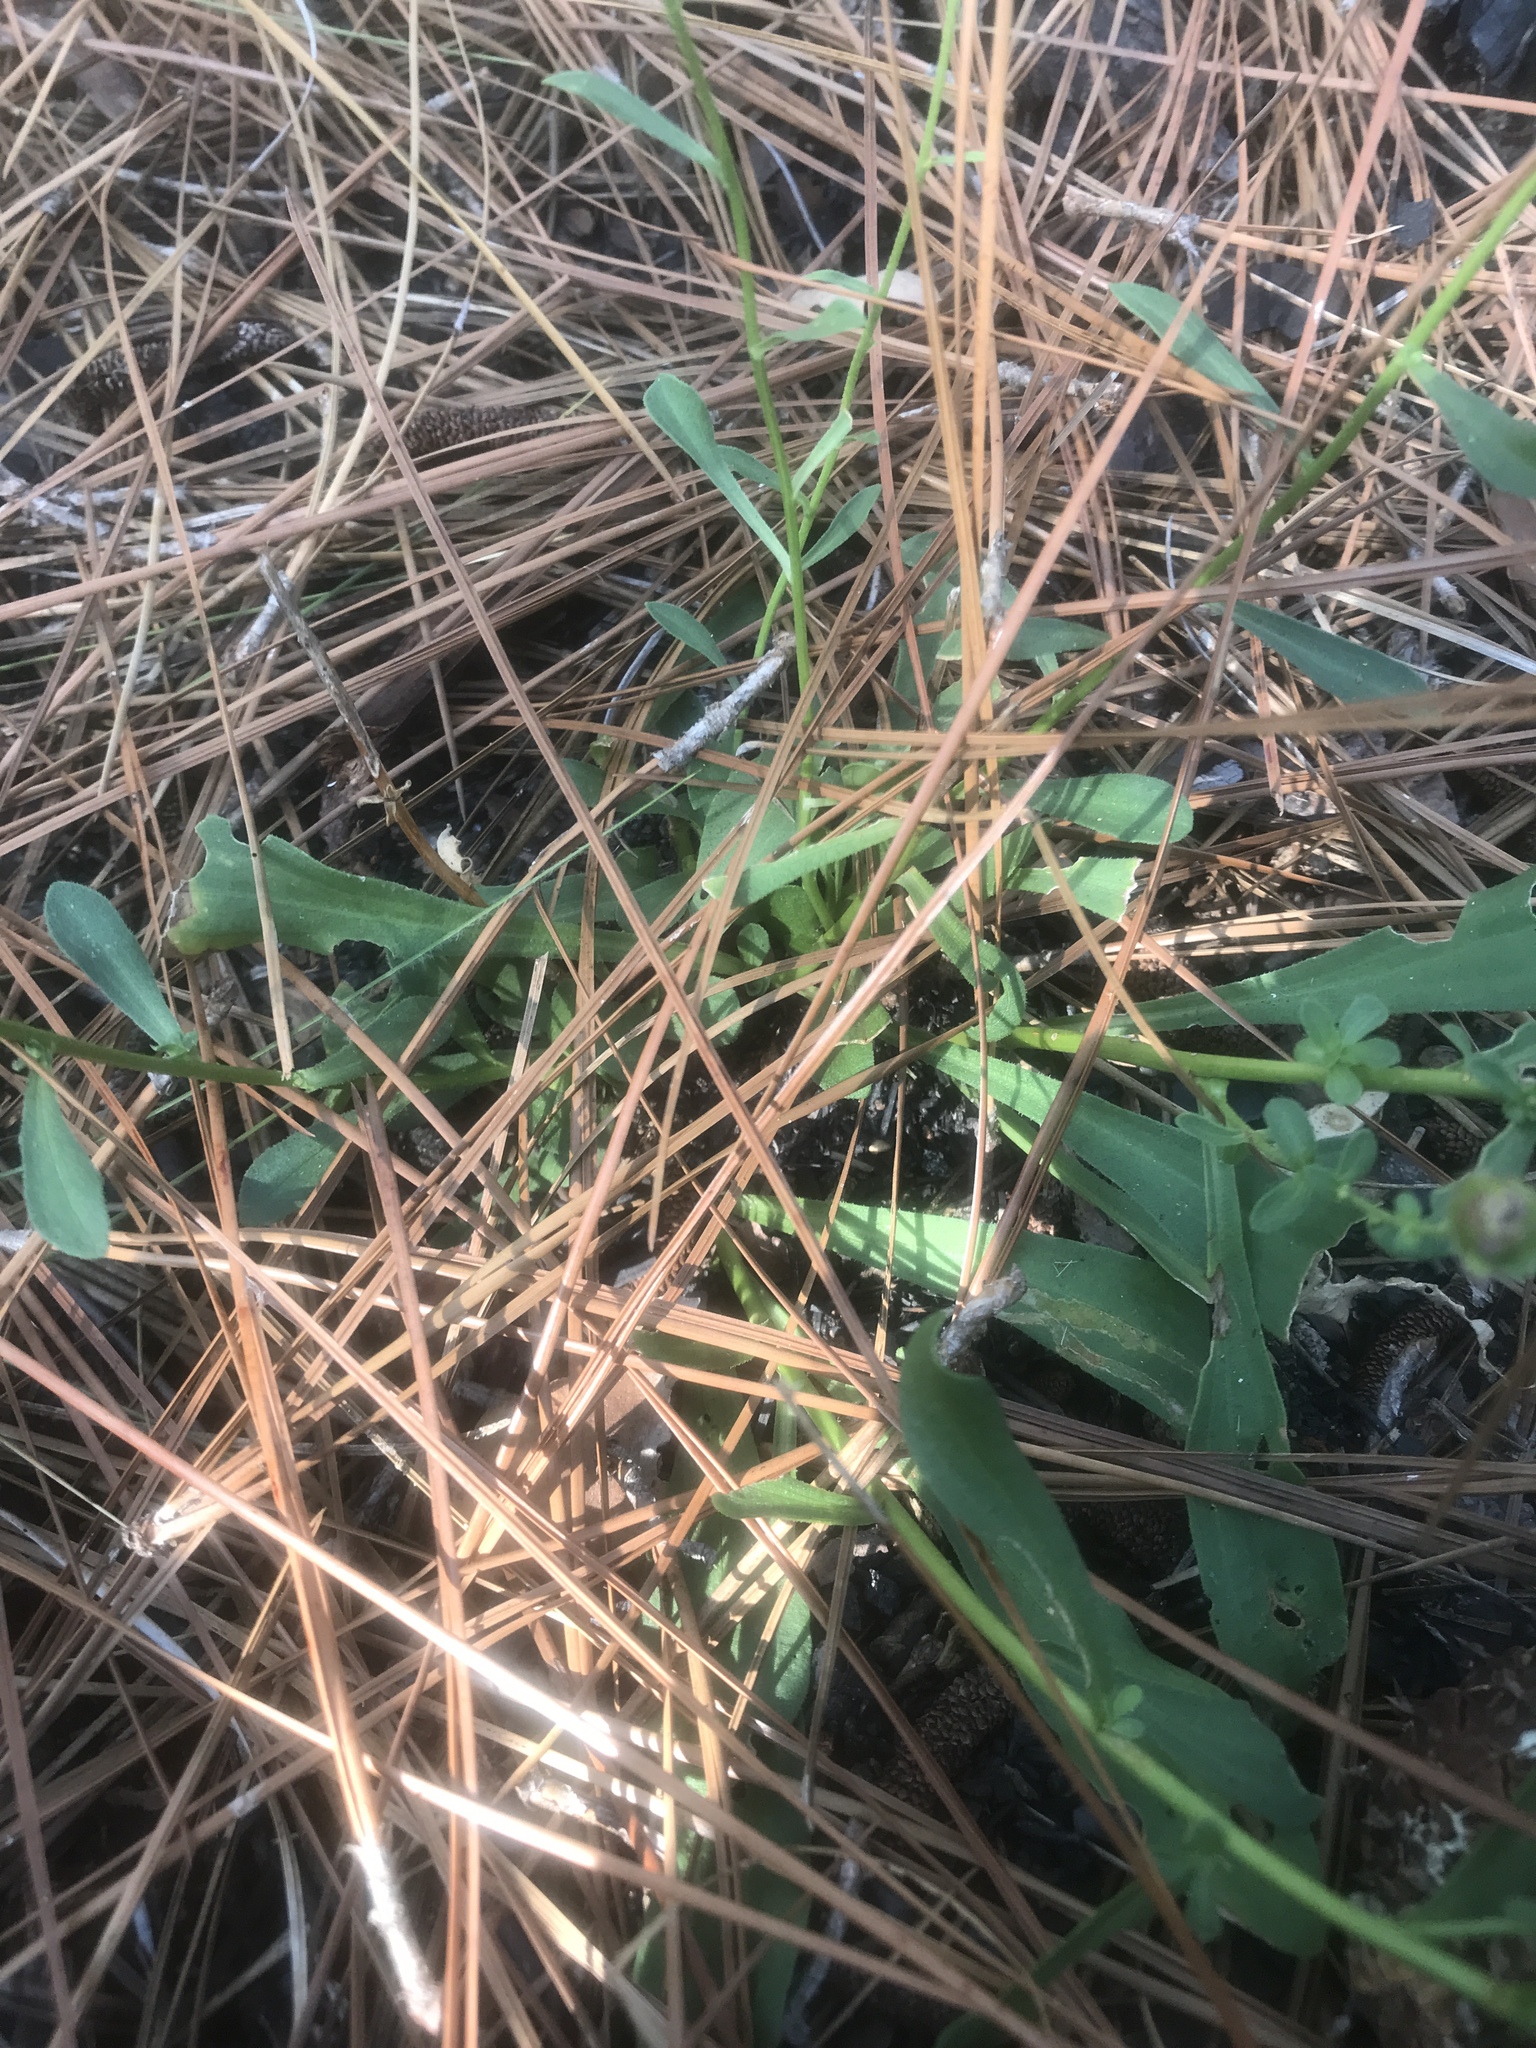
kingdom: Plantae
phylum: Tracheophyta
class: Magnoliopsida
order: Asterales
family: Asteraceae
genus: Carphephorus
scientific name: Carphephorus bellidifolius
